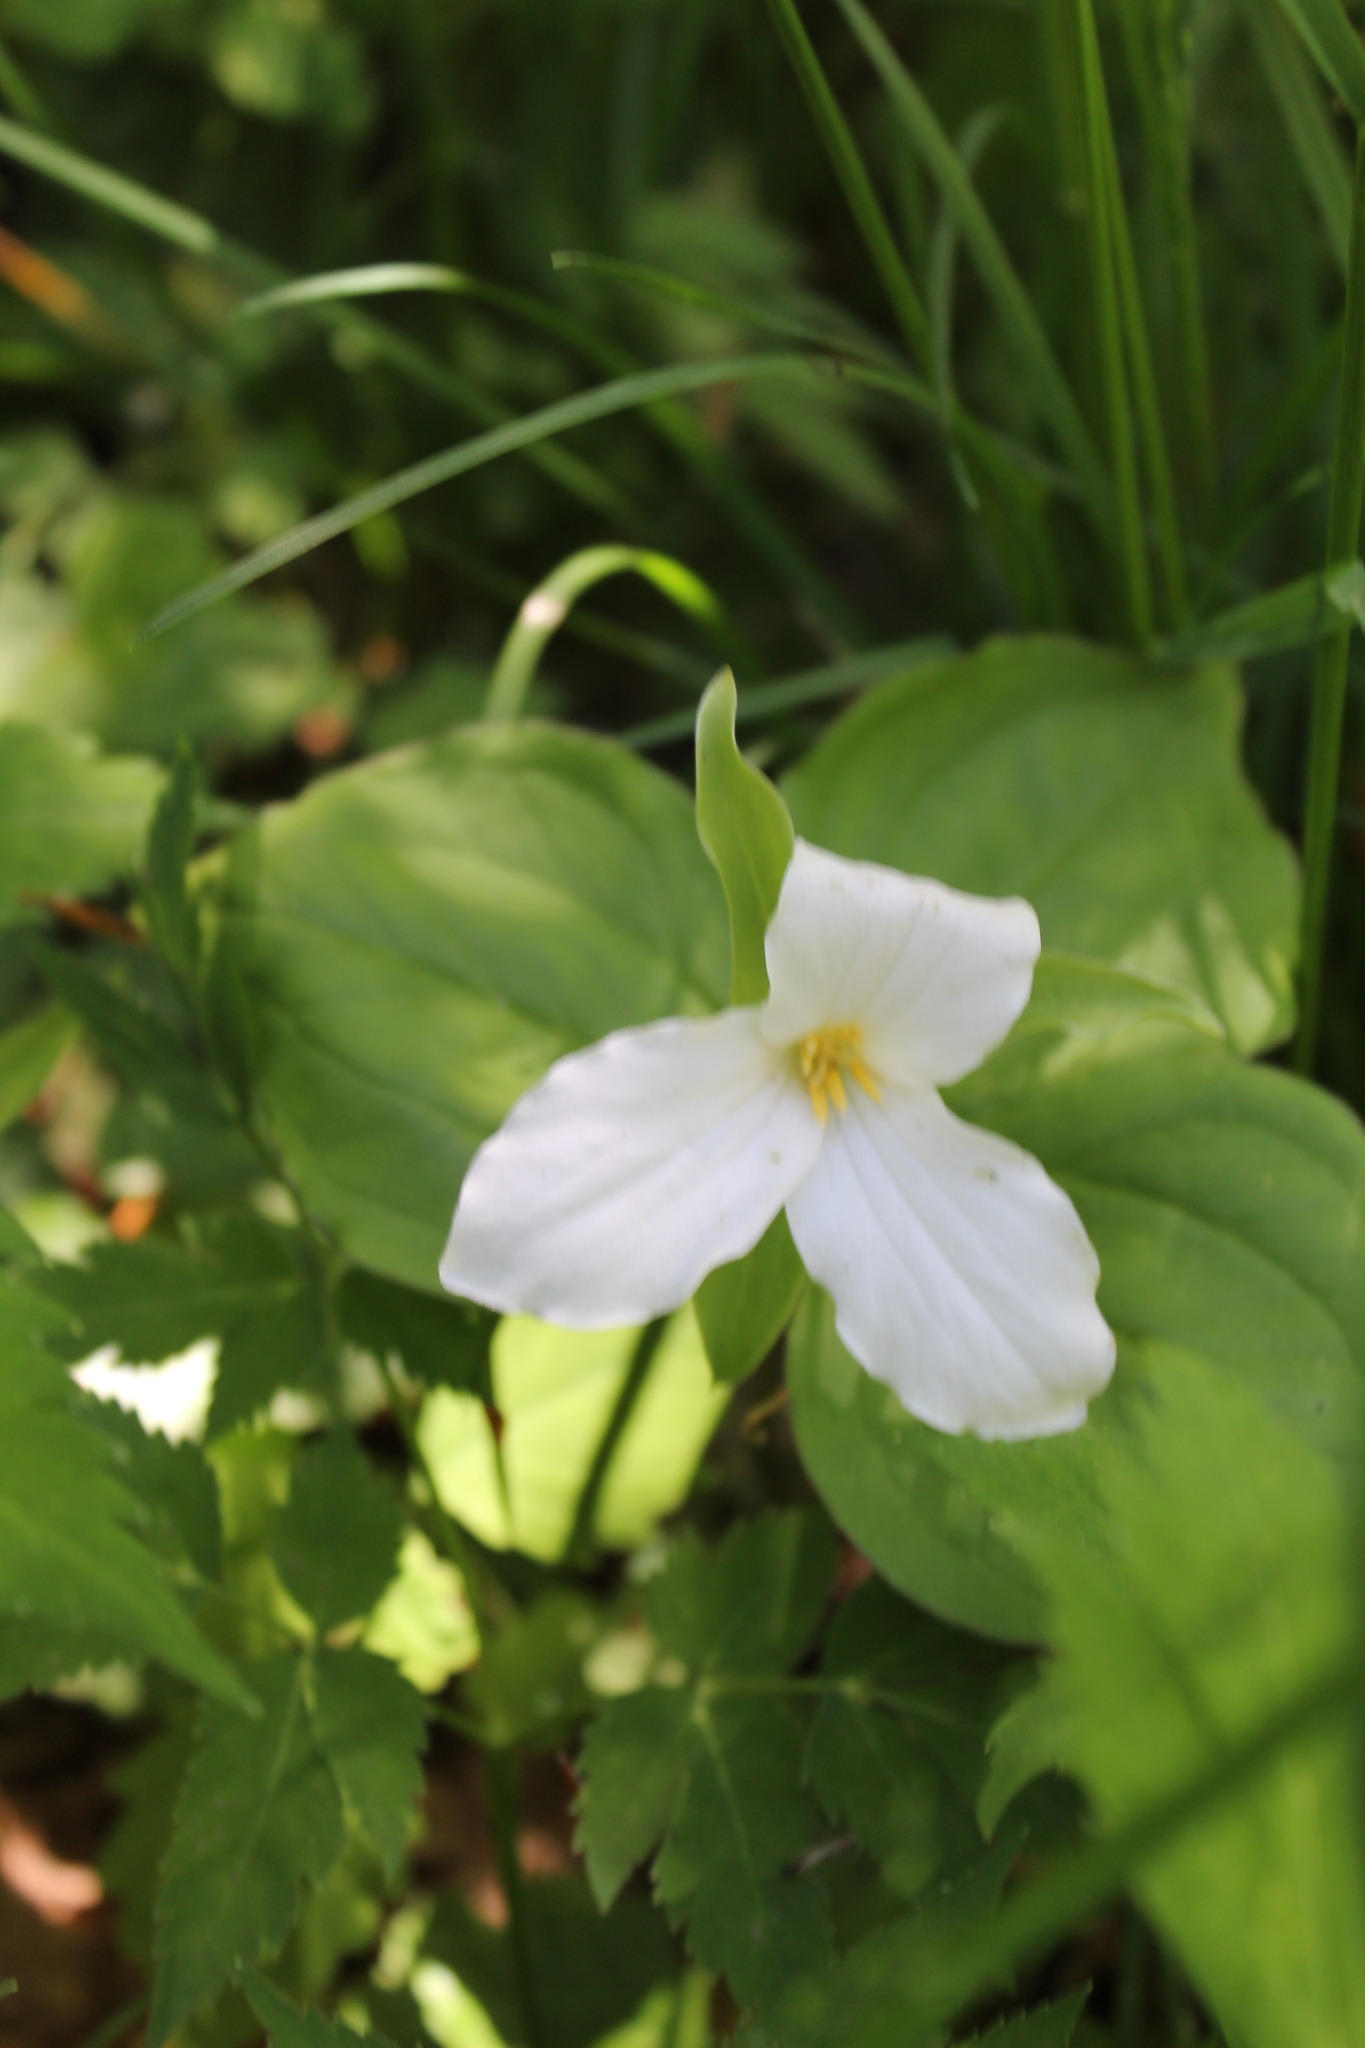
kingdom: Plantae
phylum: Tracheophyta
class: Liliopsida
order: Liliales
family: Melanthiaceae
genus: Trillium
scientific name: Trillium grandiflorum
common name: Great white trillium
